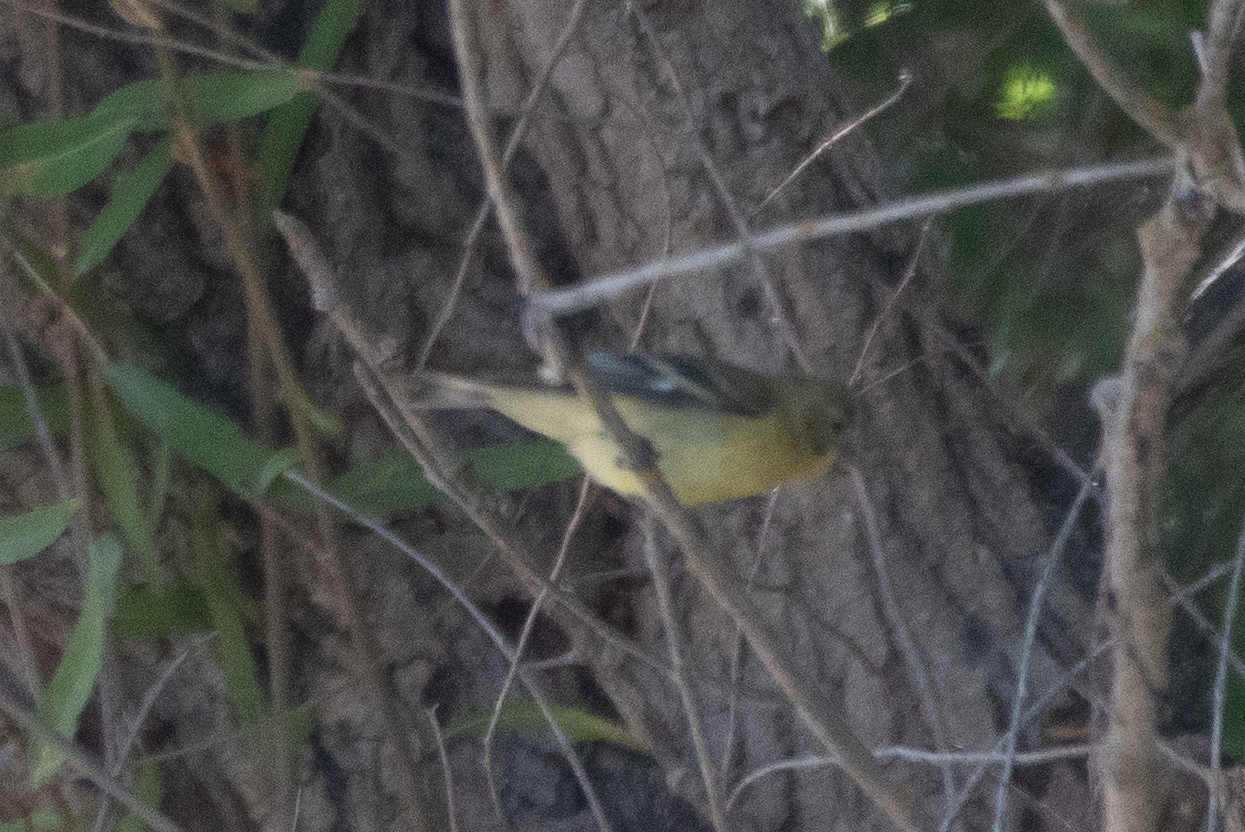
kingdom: Animalia
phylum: Chordata
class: Aves
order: Passeriformes
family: Fringillidae
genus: Spinus
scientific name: Spinus psaltria
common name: Lesser goldfinch
